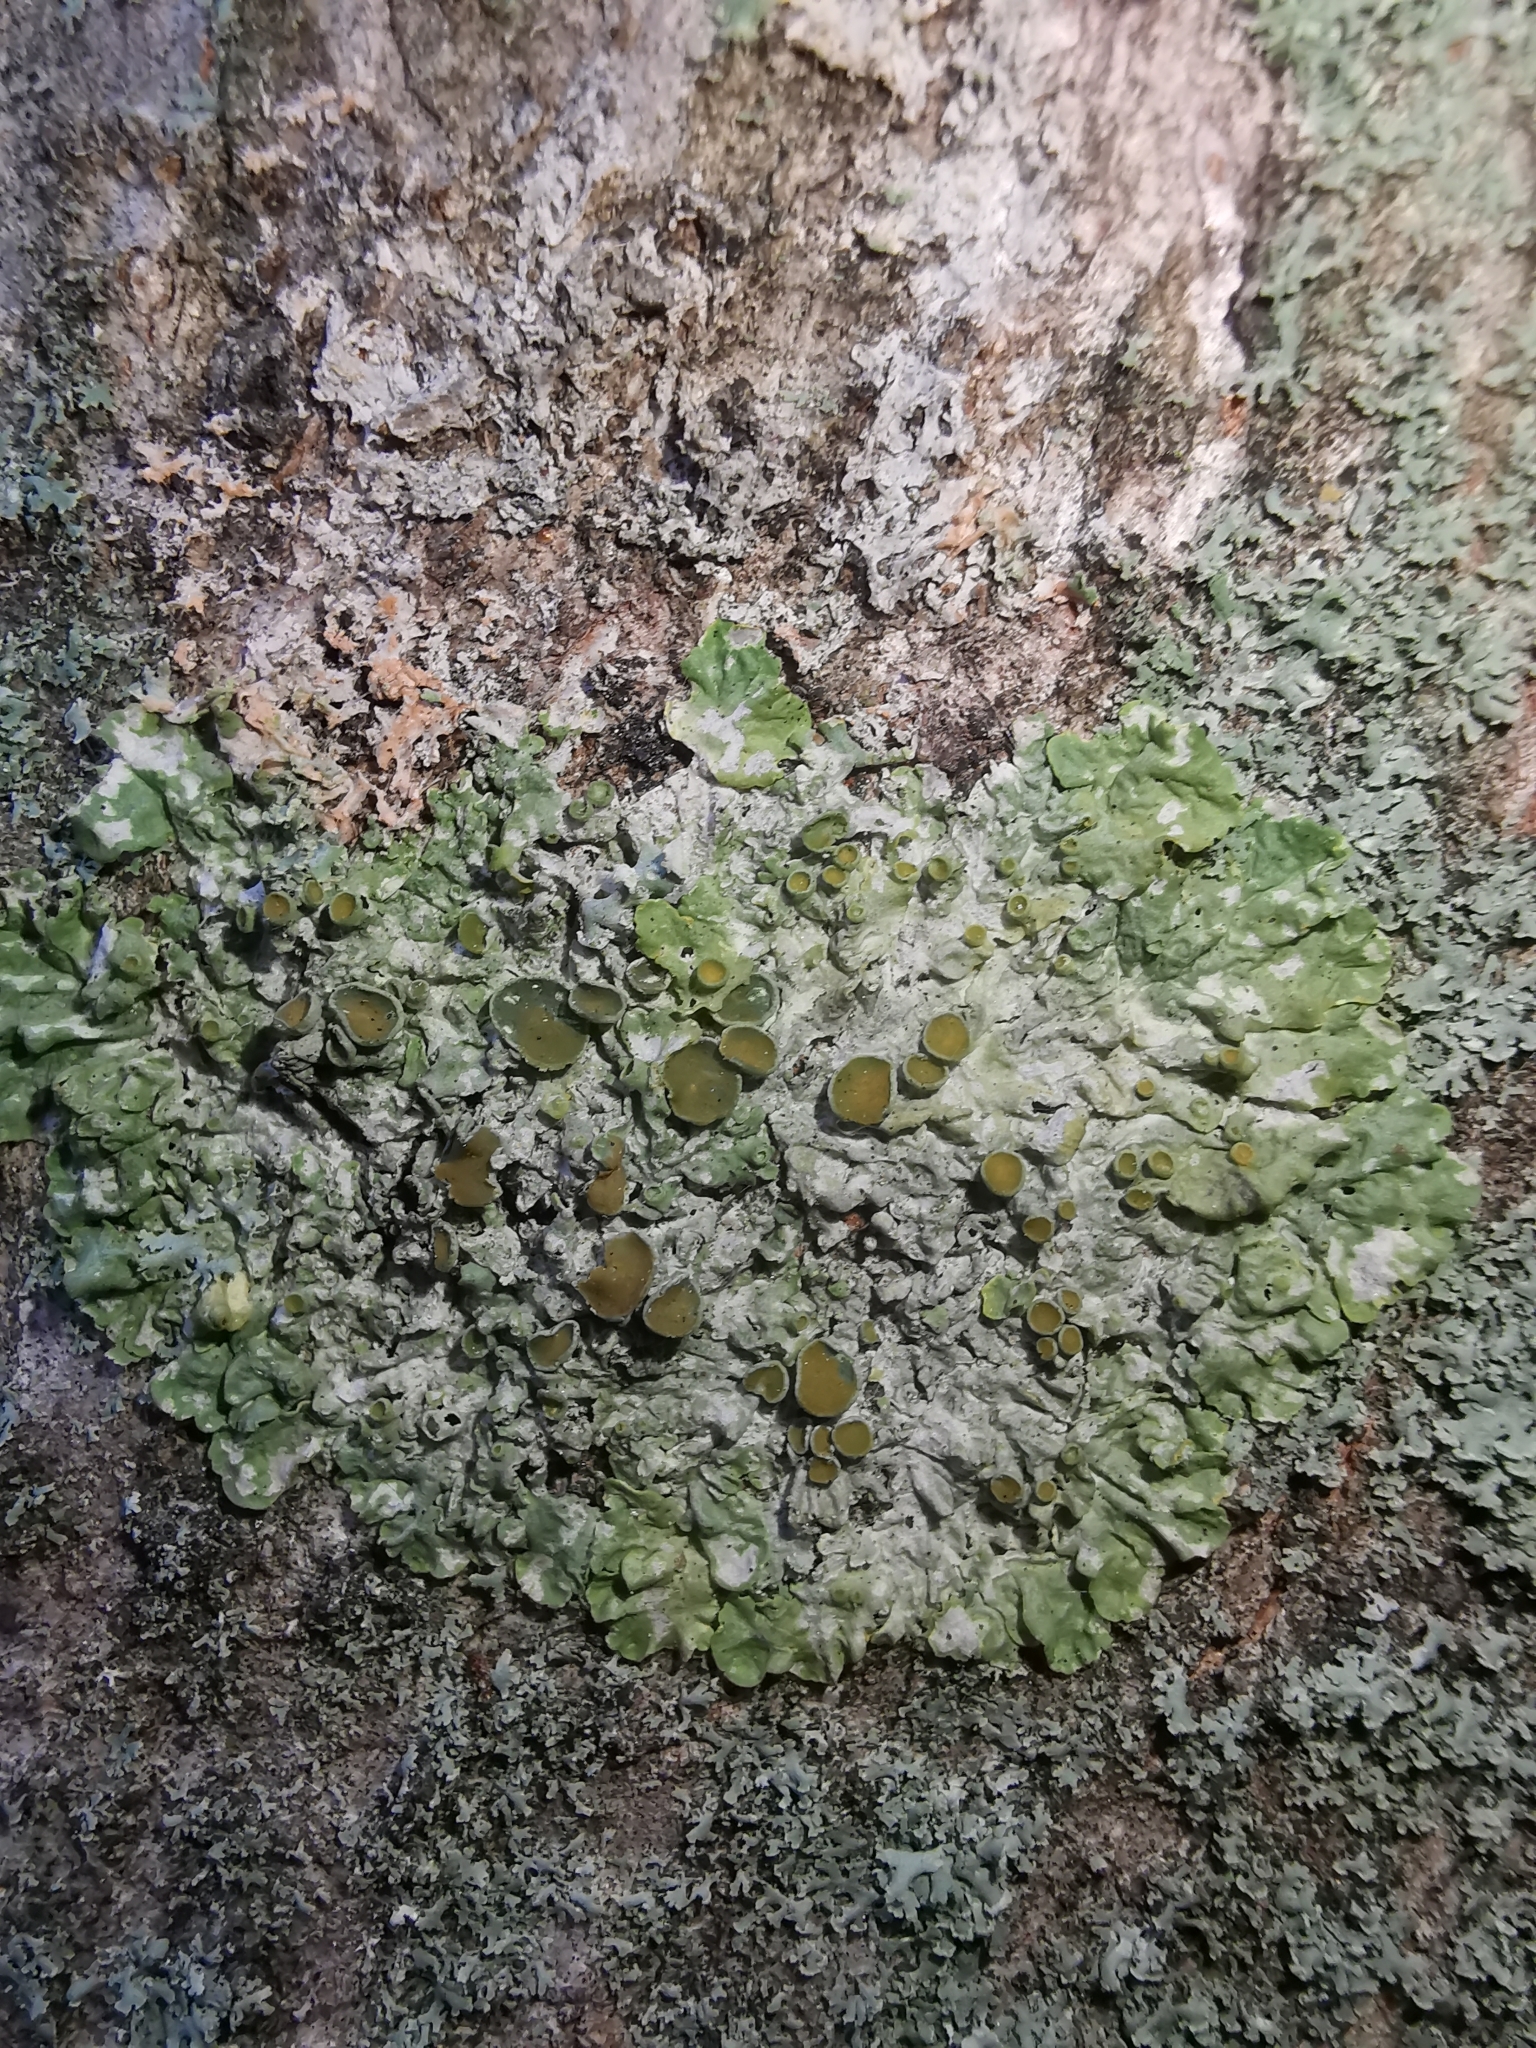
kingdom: Fungi
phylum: Ascomycota
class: Lecanoromycetes
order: Teloschistales
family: Teloschistaceae
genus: Xanthoria
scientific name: Xanthoria parietina
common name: Common orange lichen
